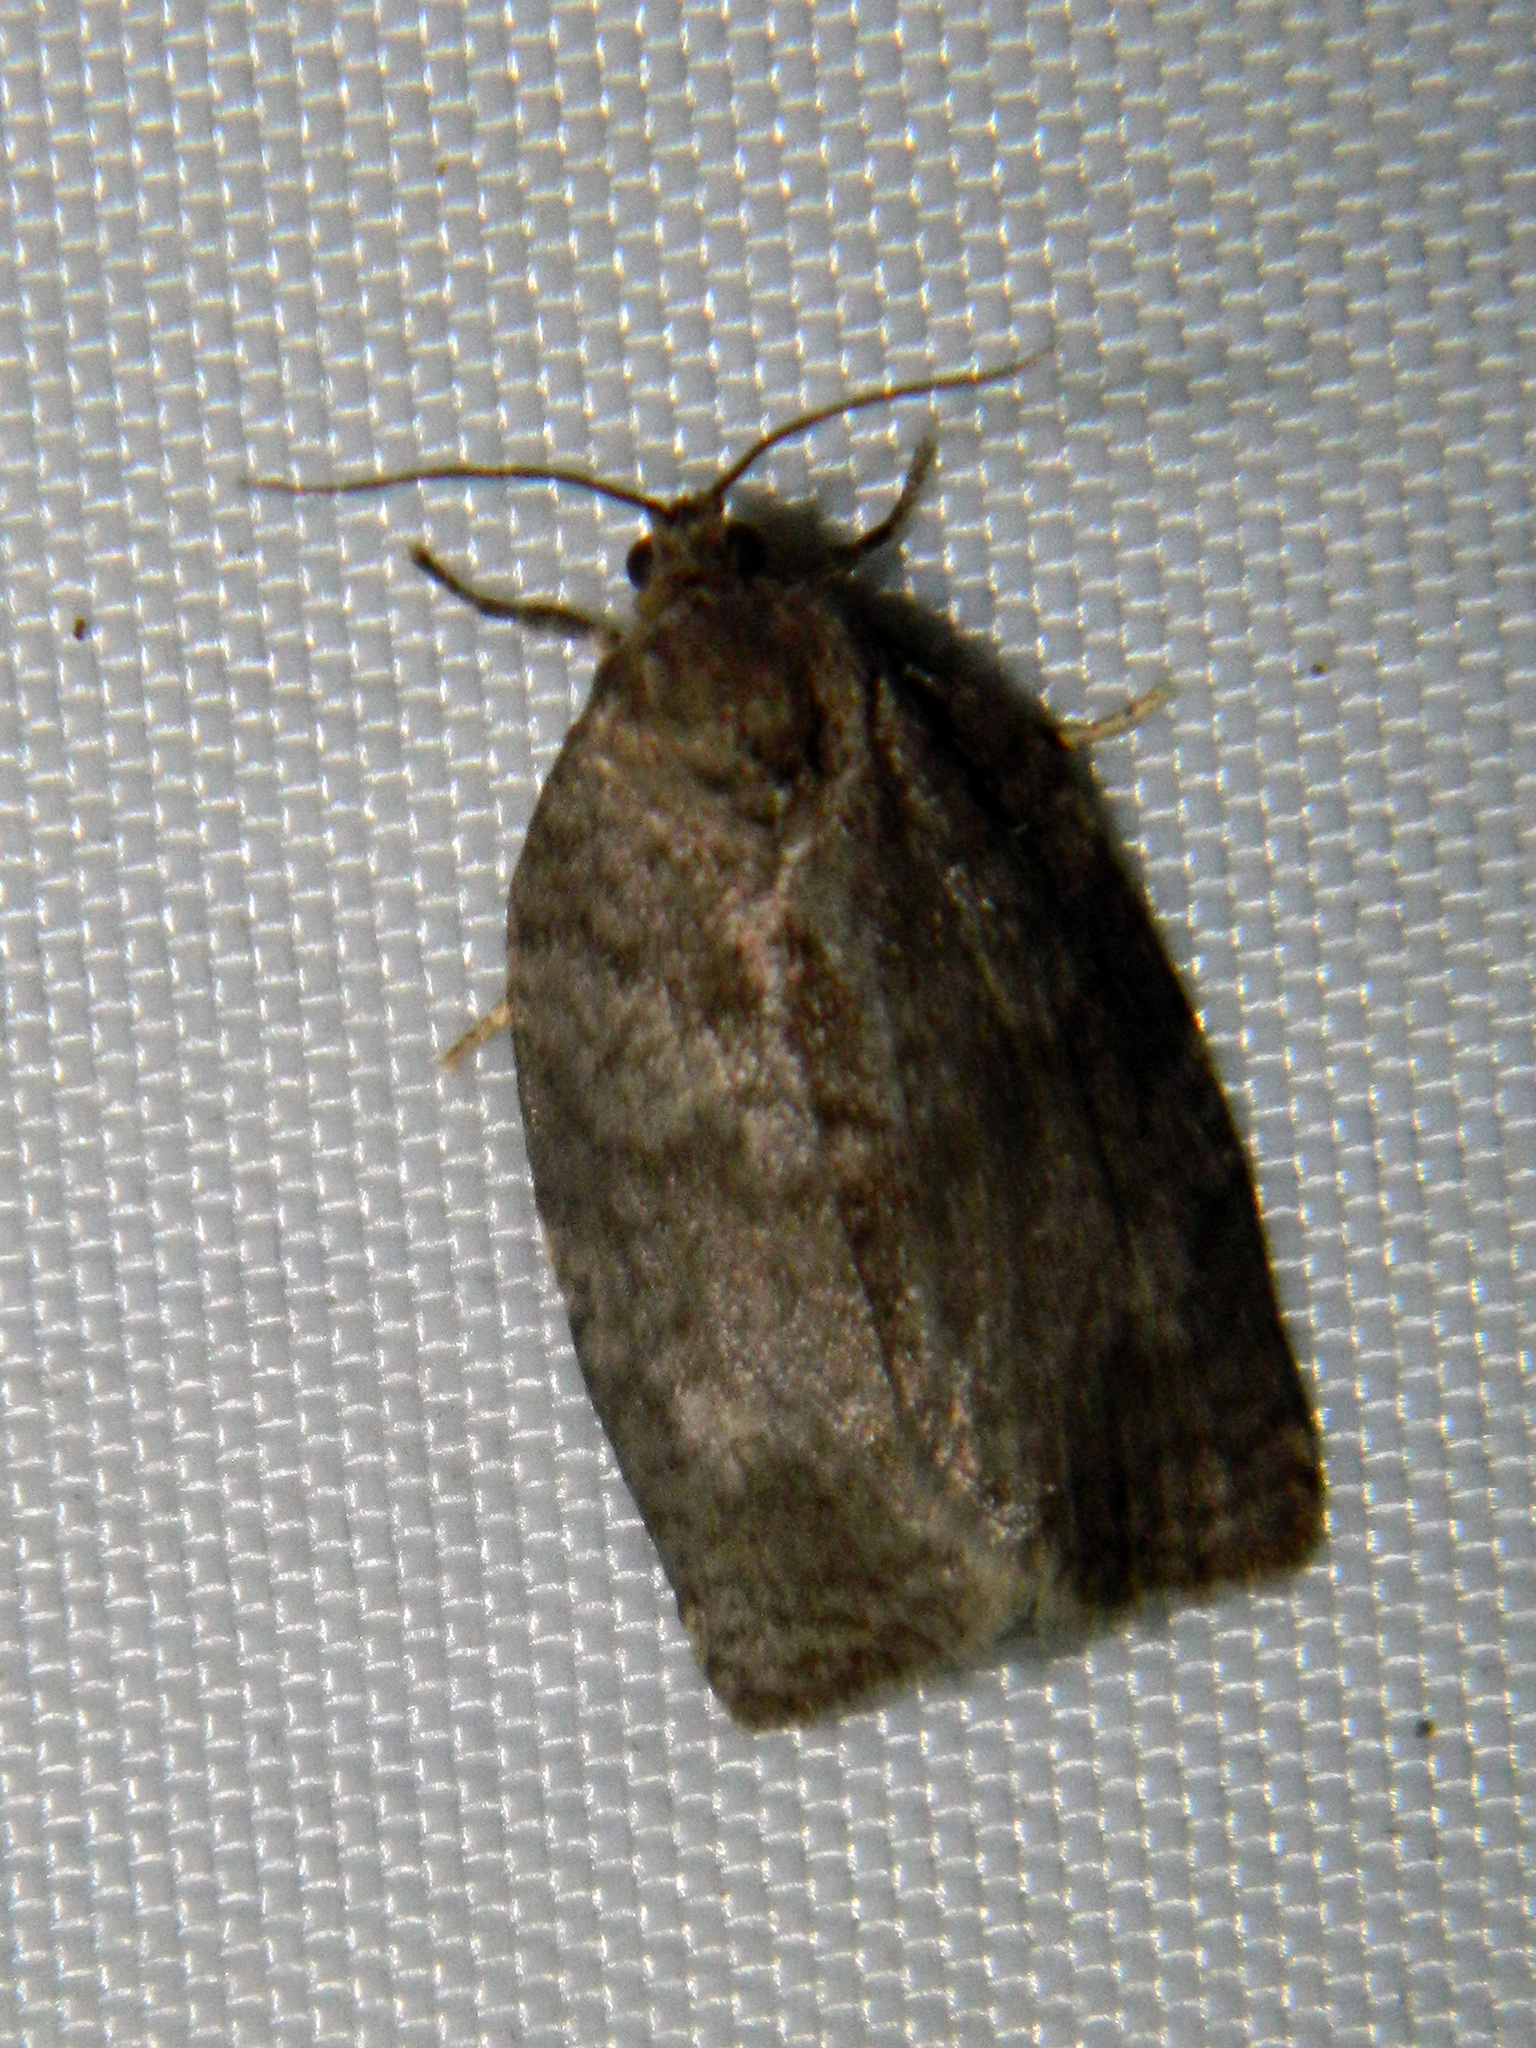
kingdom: Animalia
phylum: Arthropoda
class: Insecta
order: Lepidoptera
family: Tortricidae
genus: Choristoneura
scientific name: Choristoneura conflictana
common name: Large aspen tortrix
